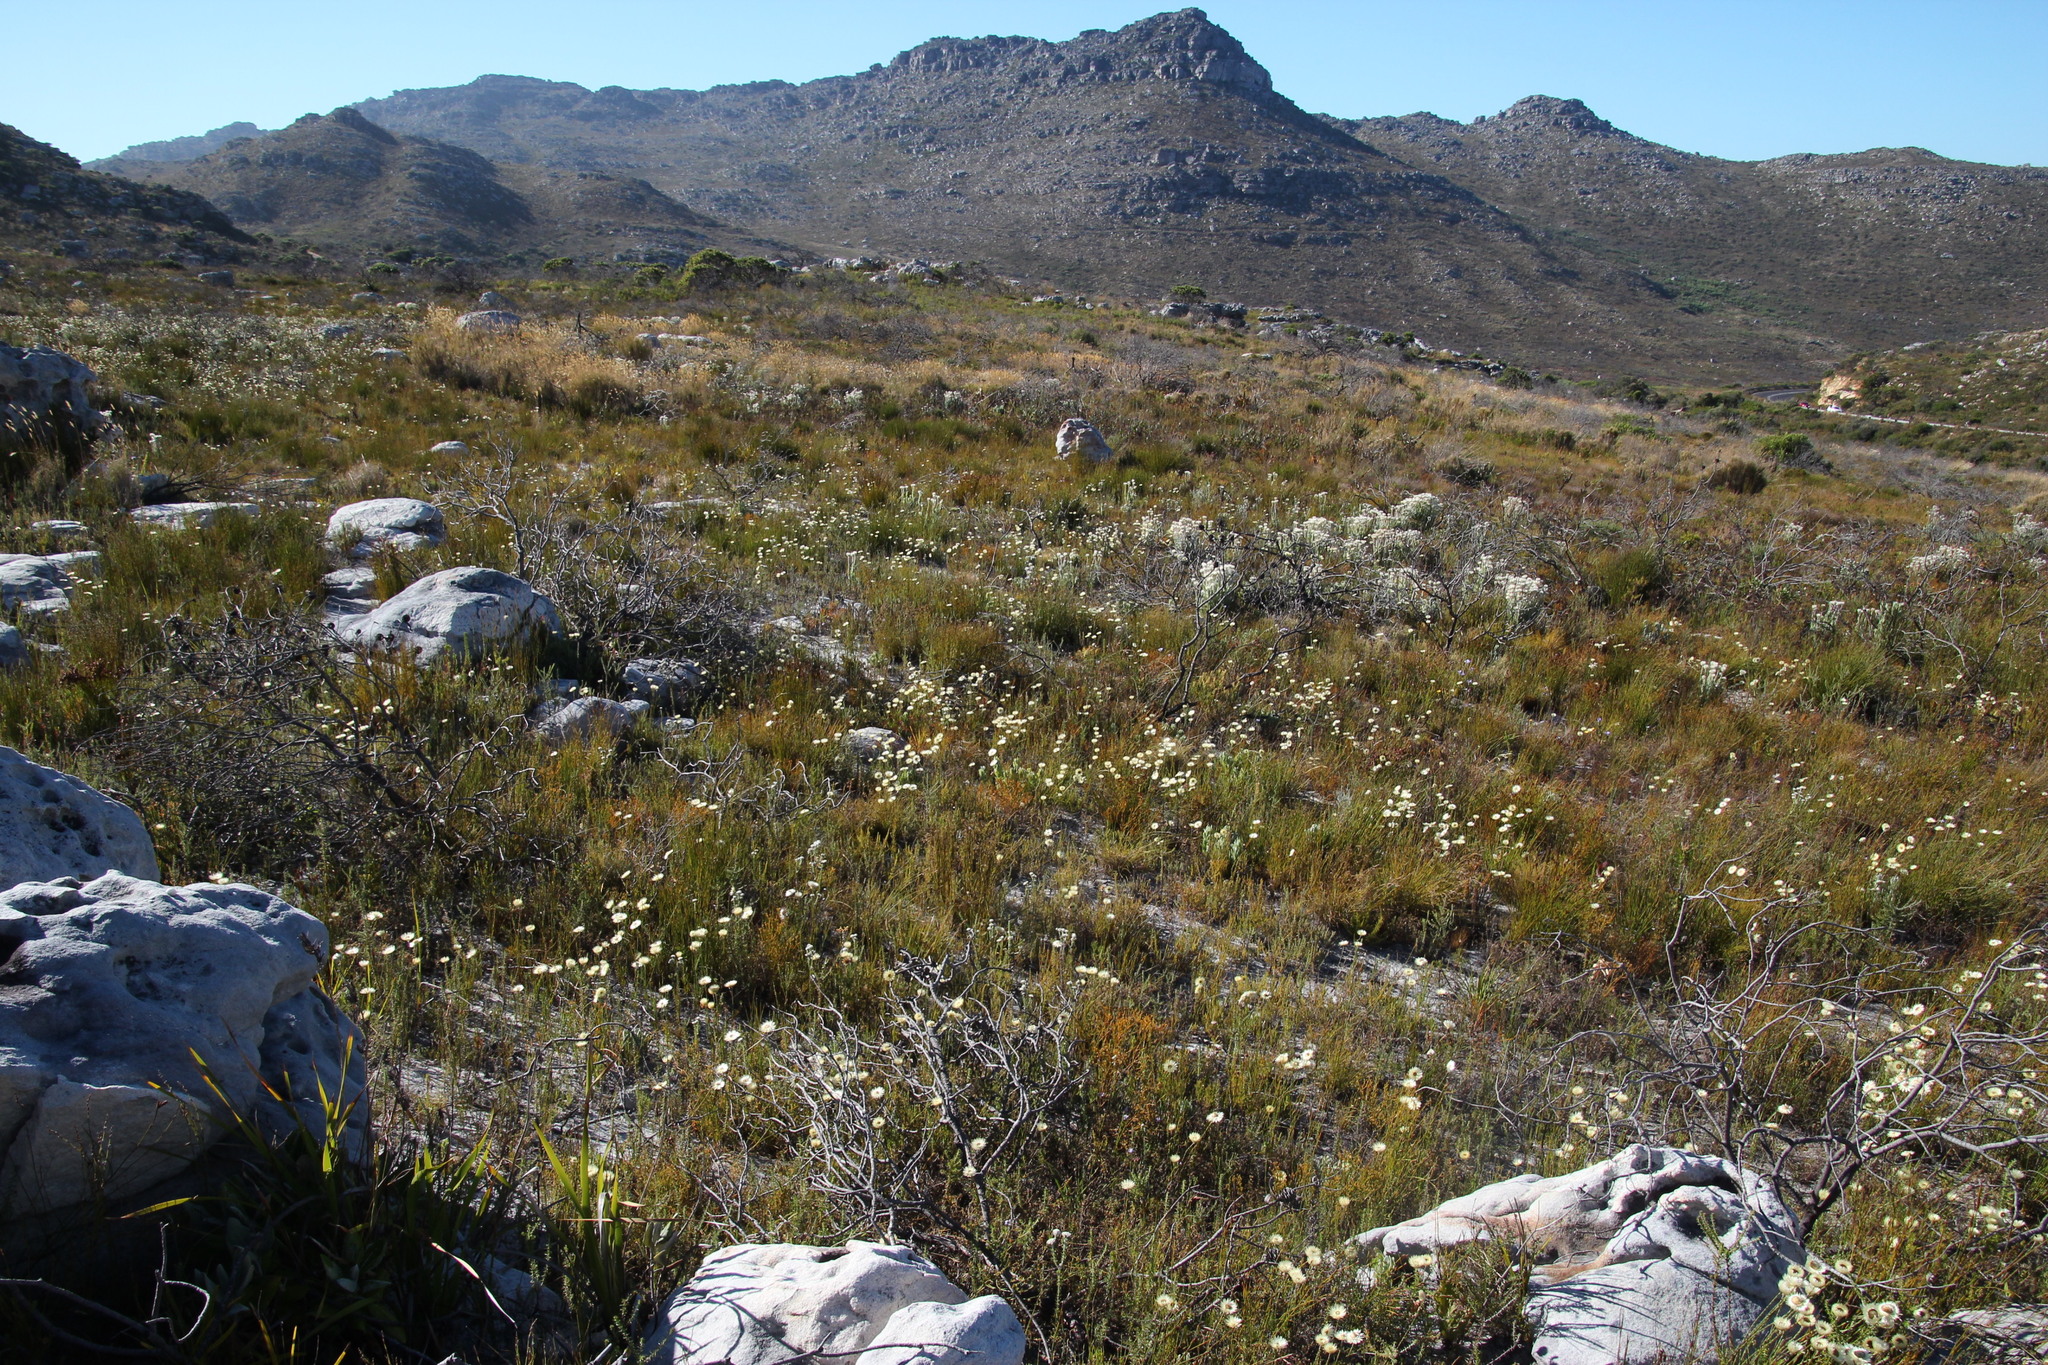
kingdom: Plantae
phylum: Tracheophyta
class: Magnoliopsida
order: Caryophyllales
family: Aizoaceae
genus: Lampranthus
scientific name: Lampranthus bicolor
